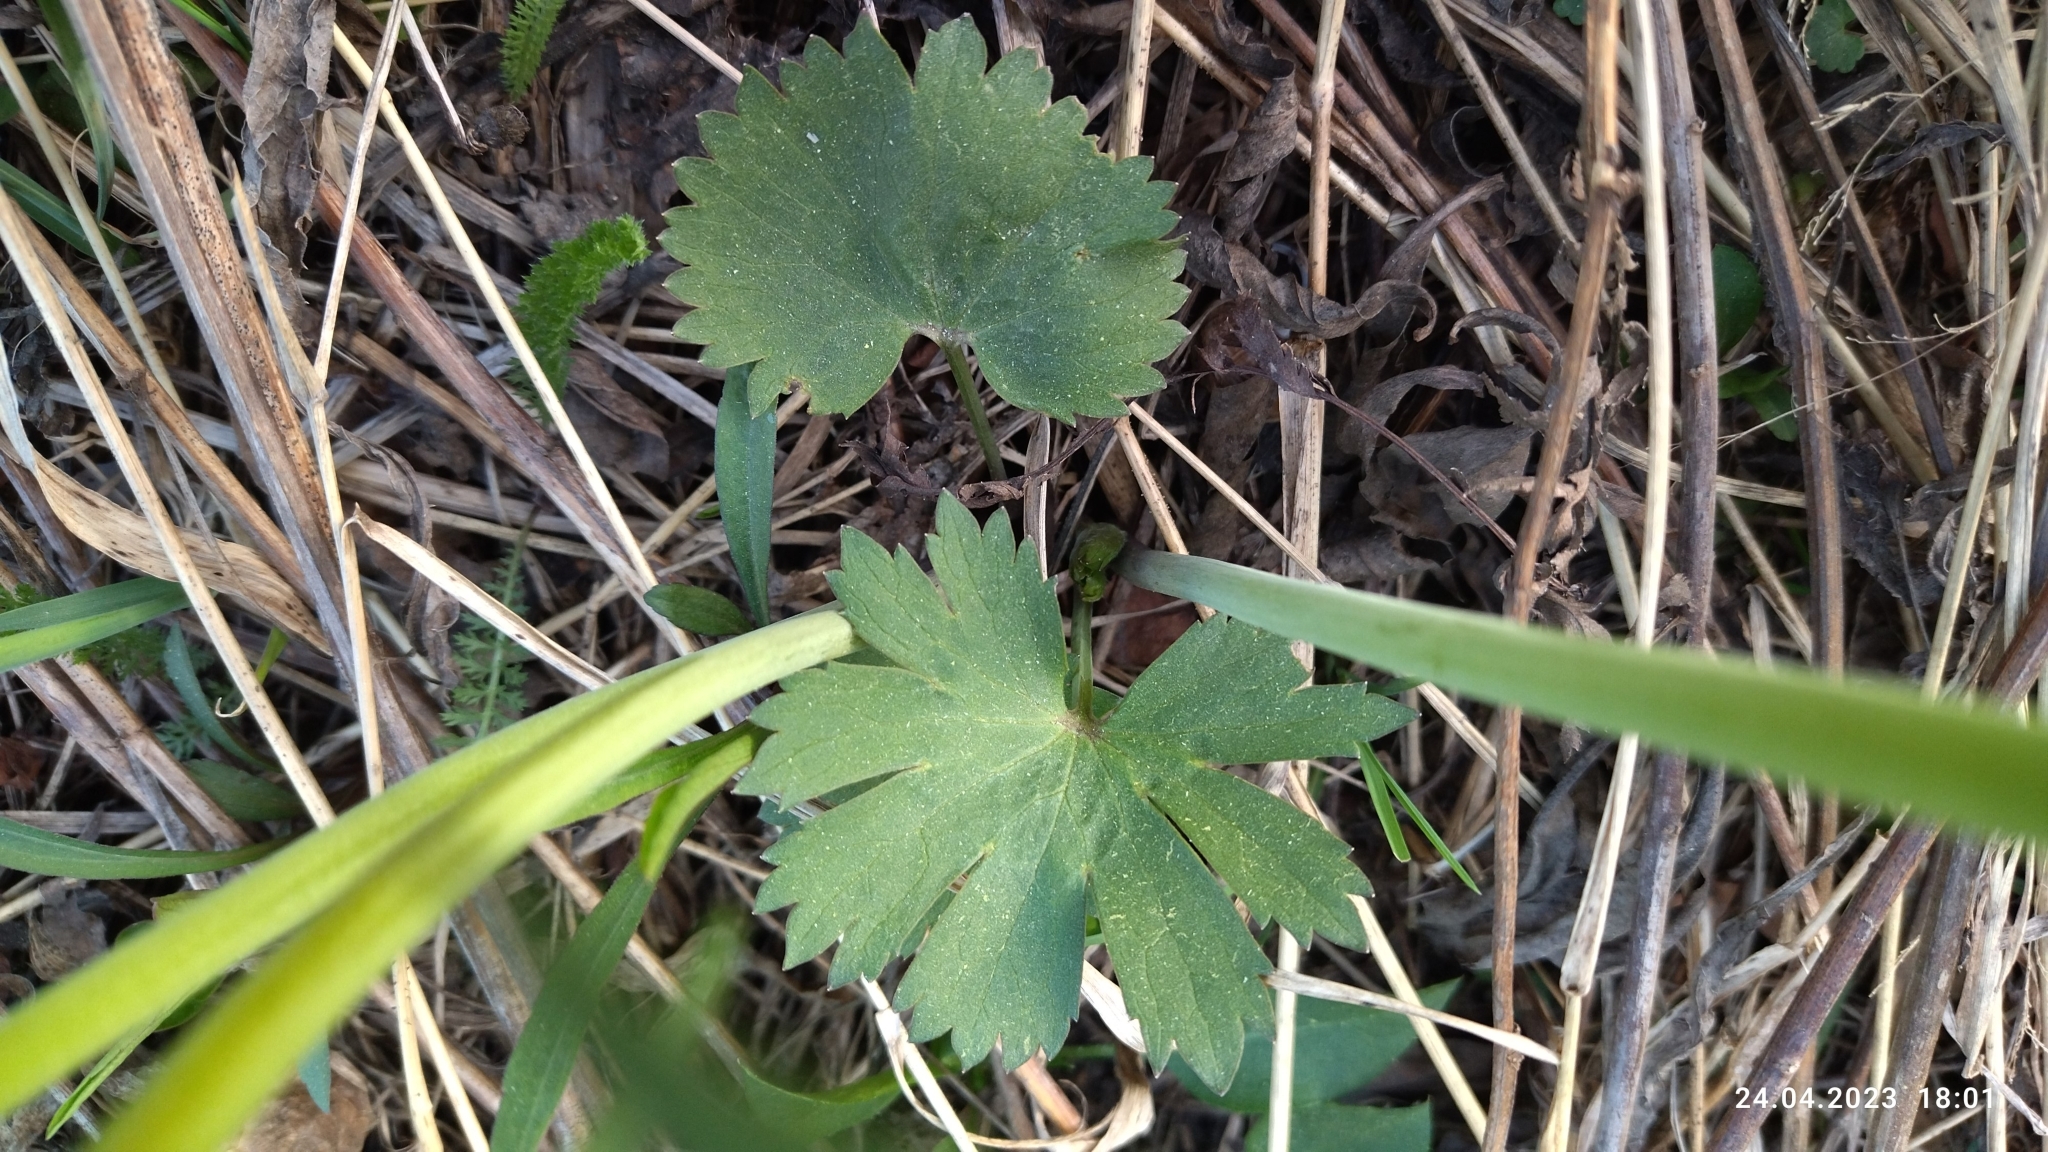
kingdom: Plantae
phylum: Tracheophyta
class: Magnoliopsida
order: Ranunculales
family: Ranunculaceae
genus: Ranunculus
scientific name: Ranunculus cassubicus
